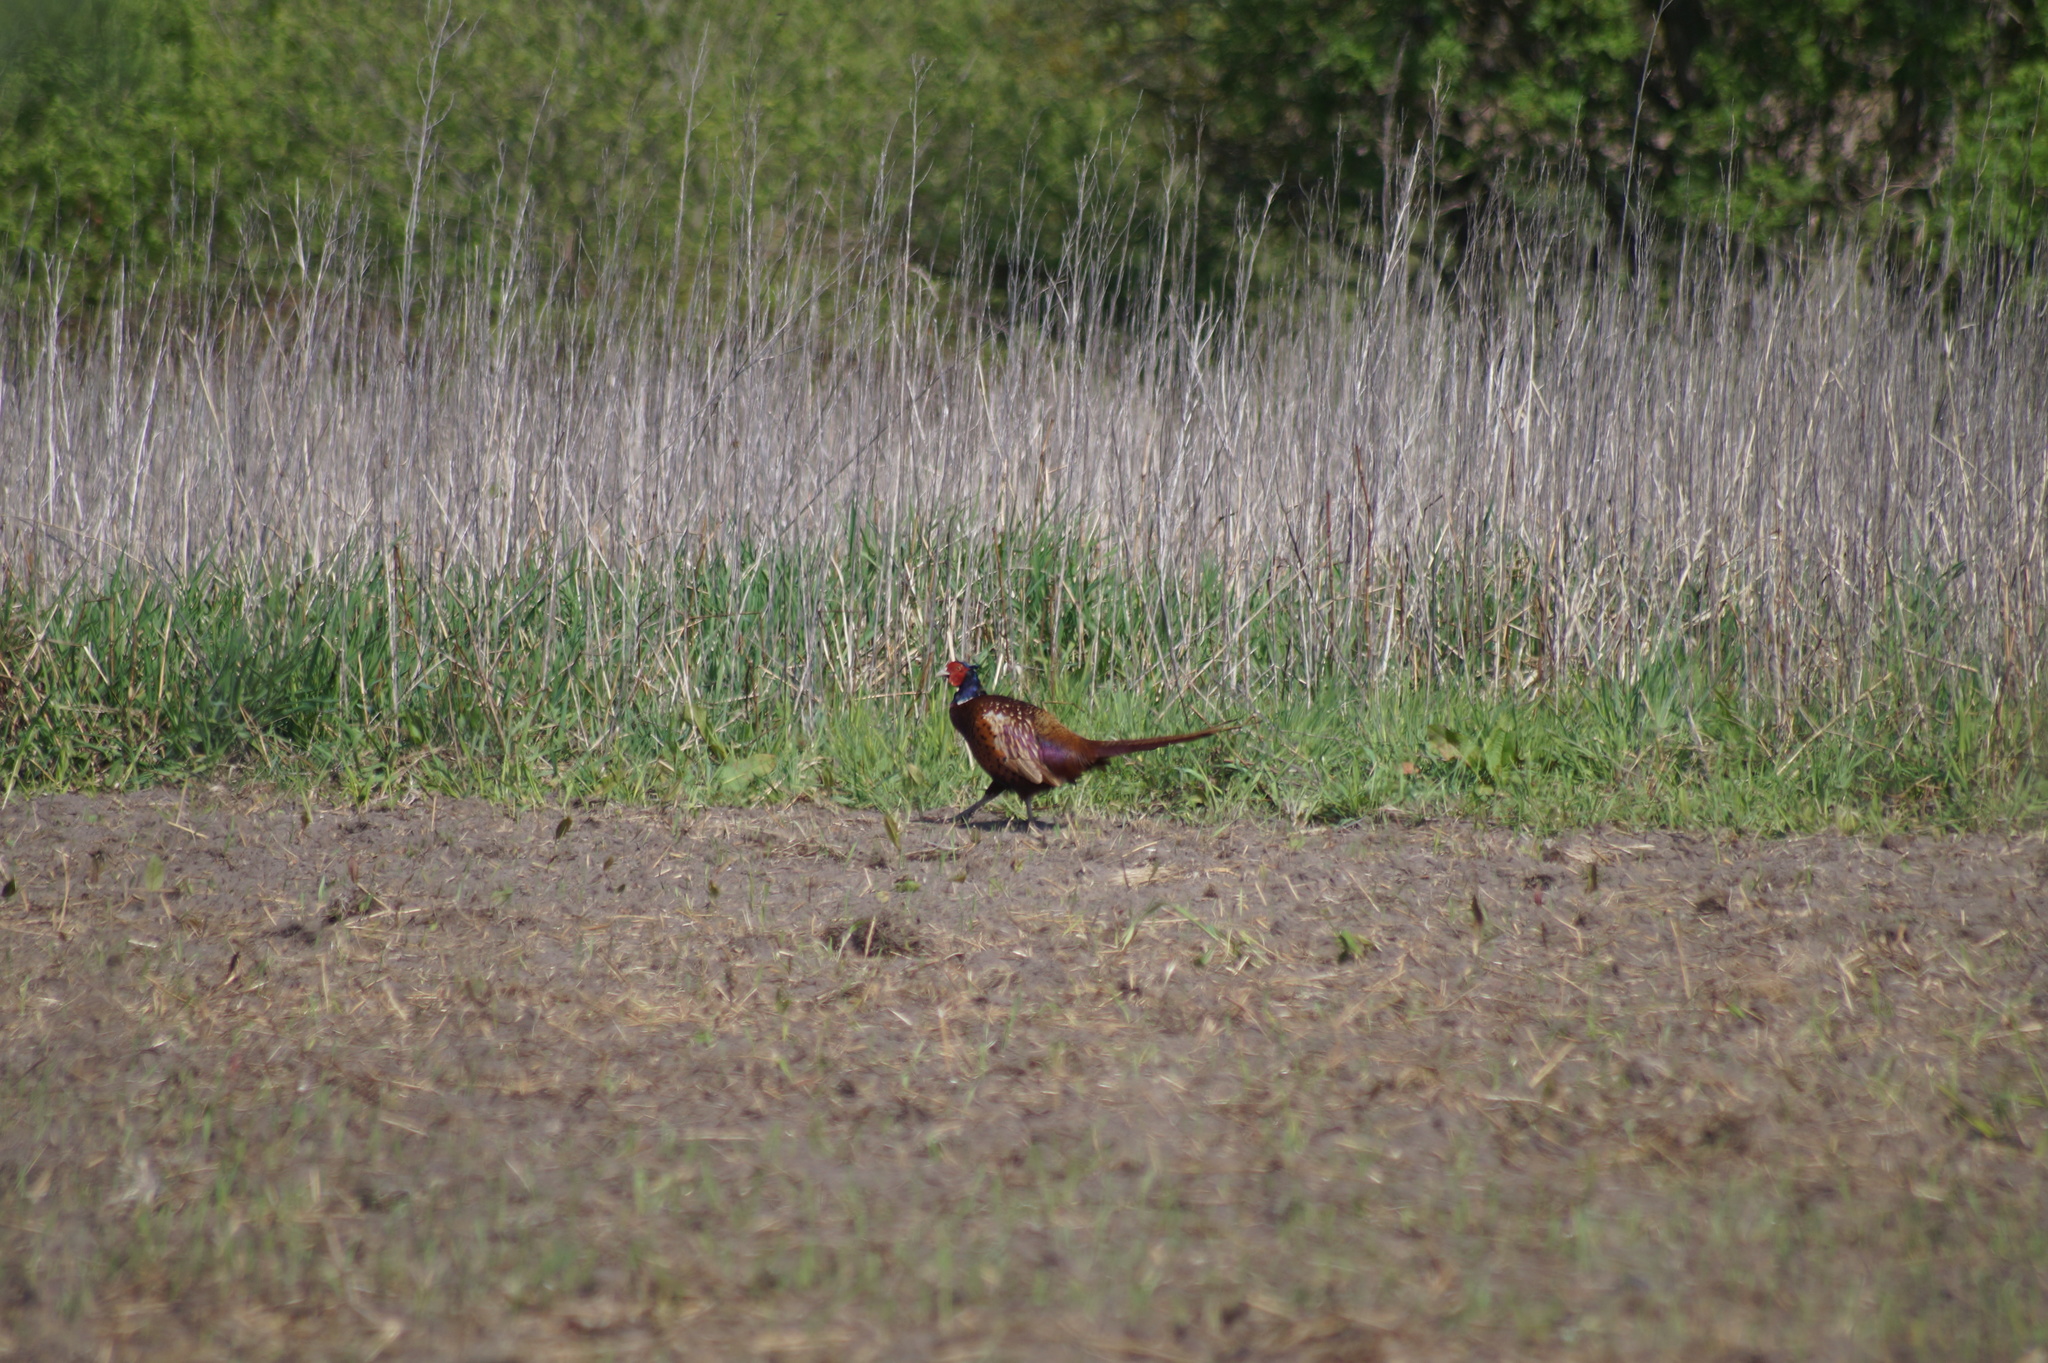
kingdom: Animalia
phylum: Chordata
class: Aves
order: Galliformes
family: Phasianidae
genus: Phasianus
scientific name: Phasianus colchicus
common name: Common pheasant
